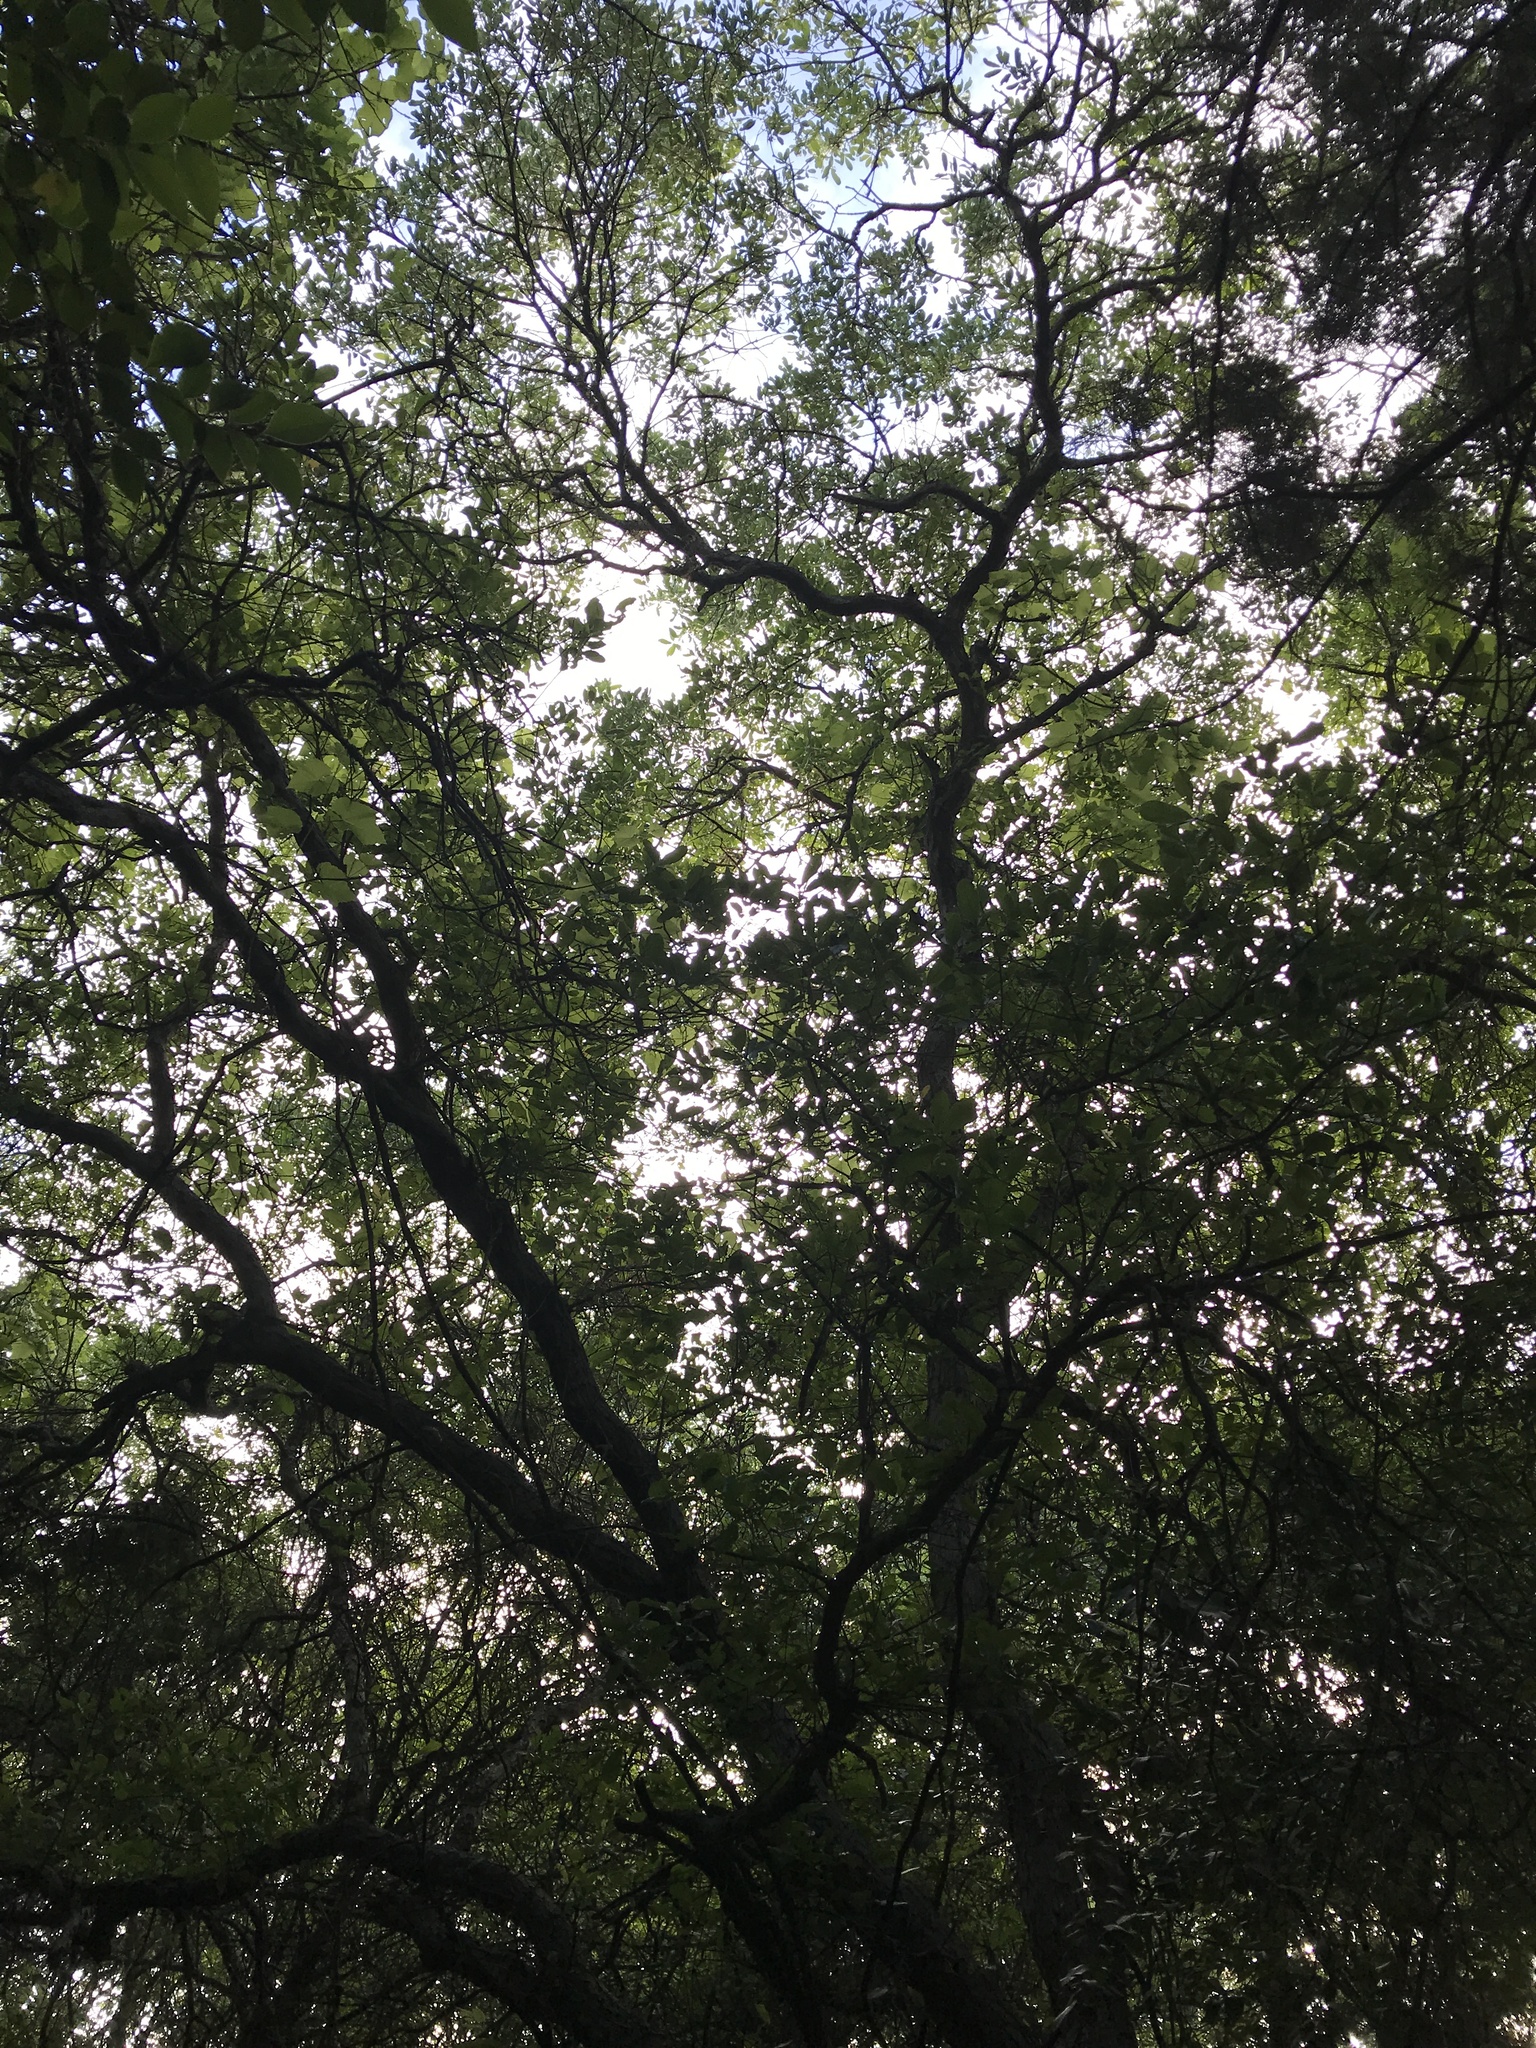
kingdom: Plantae
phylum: Tracheophyta
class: Magnoliopsida
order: Fagales
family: Fagaceae
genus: Quercus
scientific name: Quercus sinuata
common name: Durand oak
